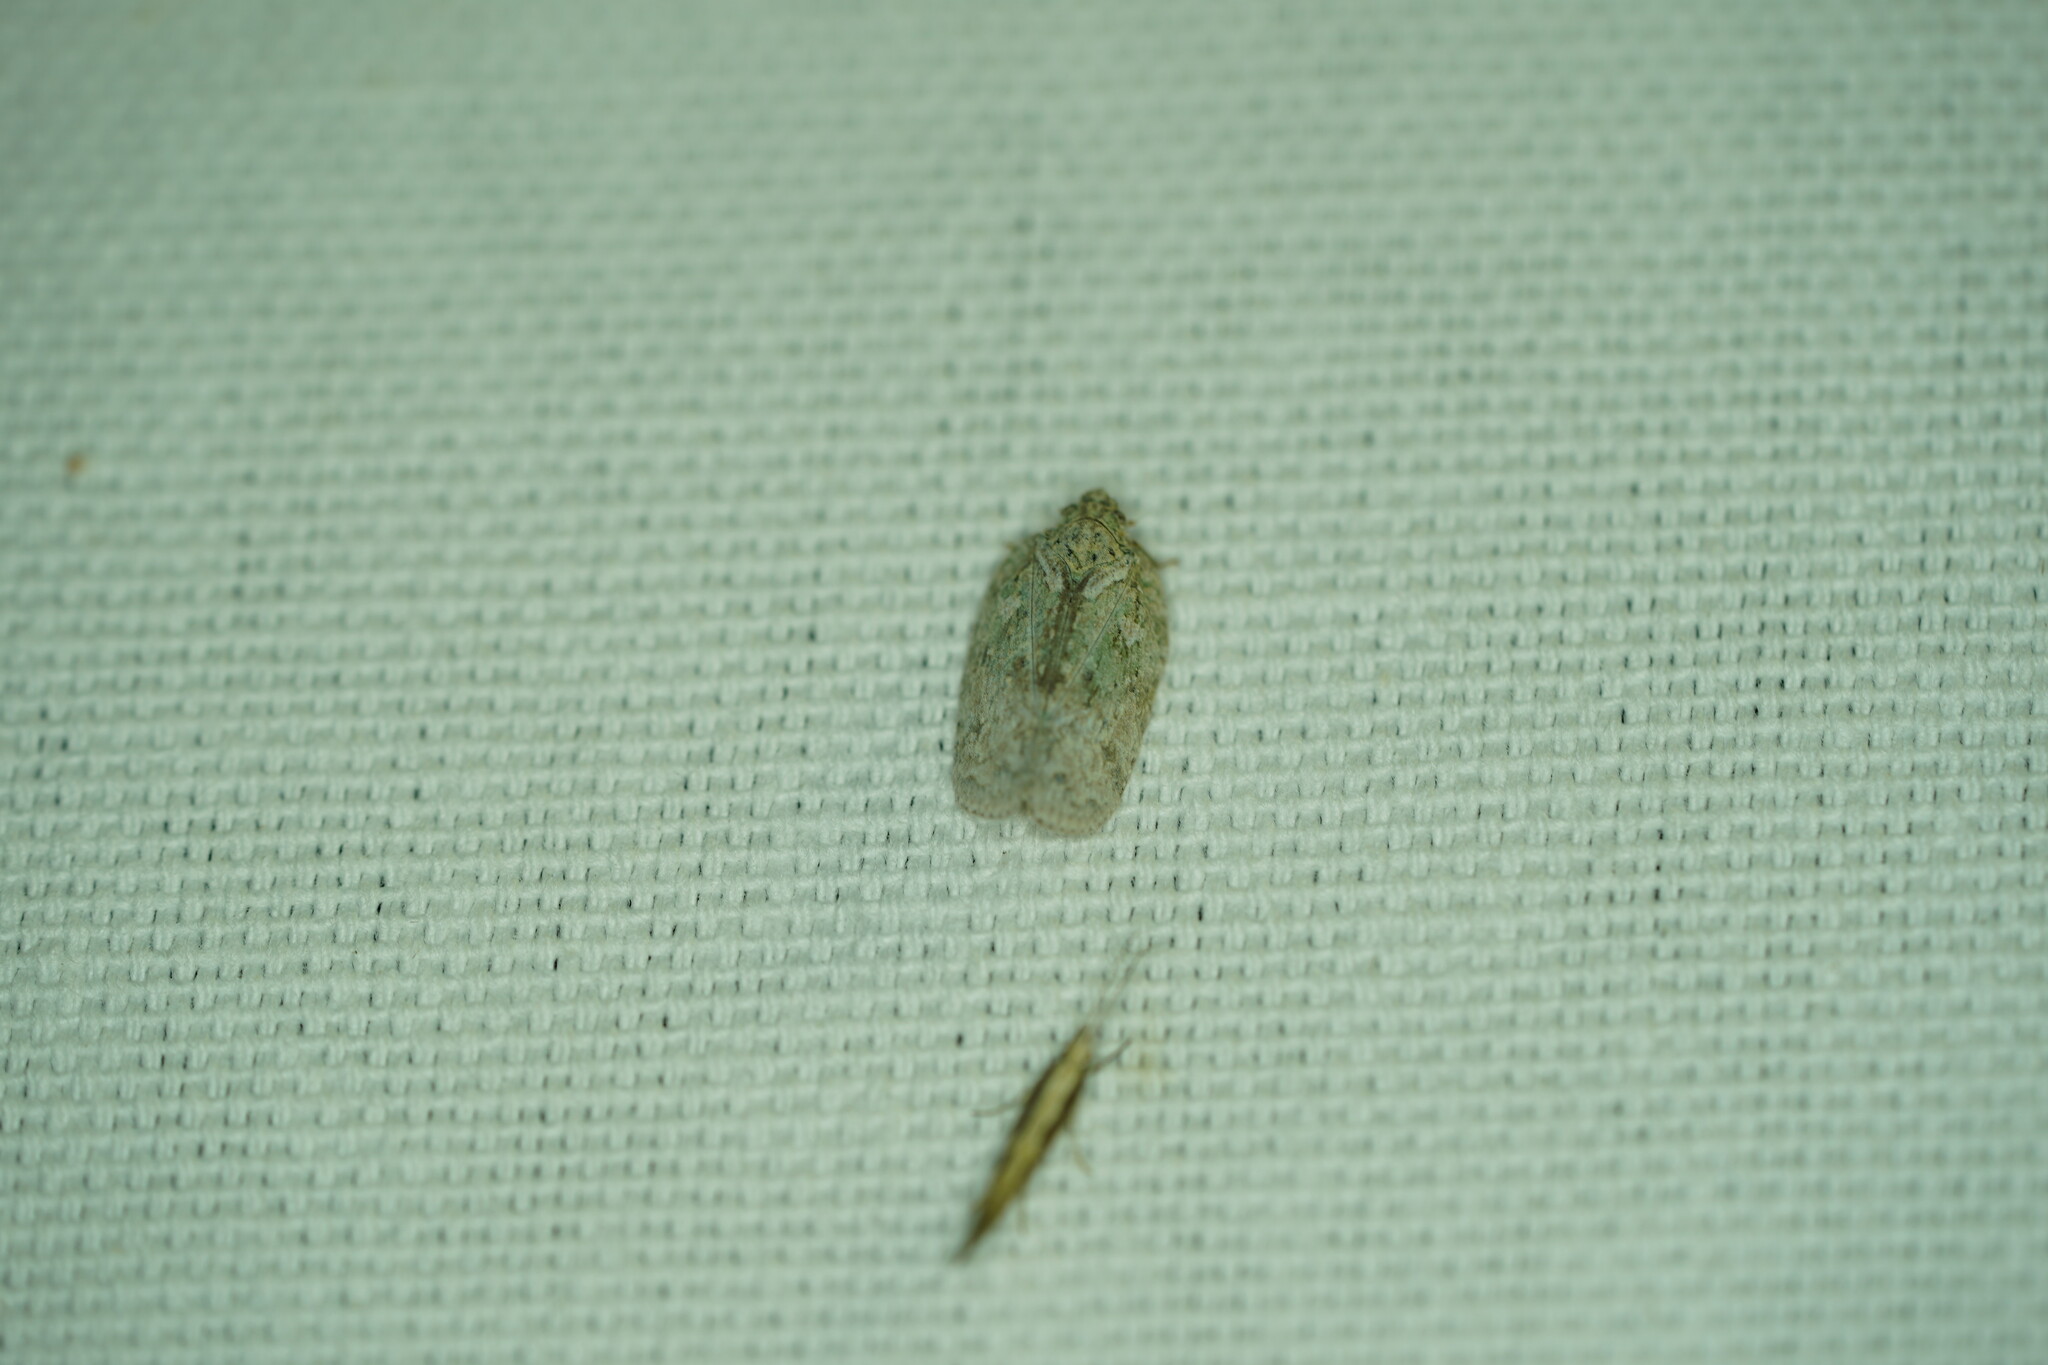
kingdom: Animalia
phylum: Arthropoda
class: Insecta
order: Hemiptera
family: Flatidae
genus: Flatoidinus
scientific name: Flatoidinus punctatus
